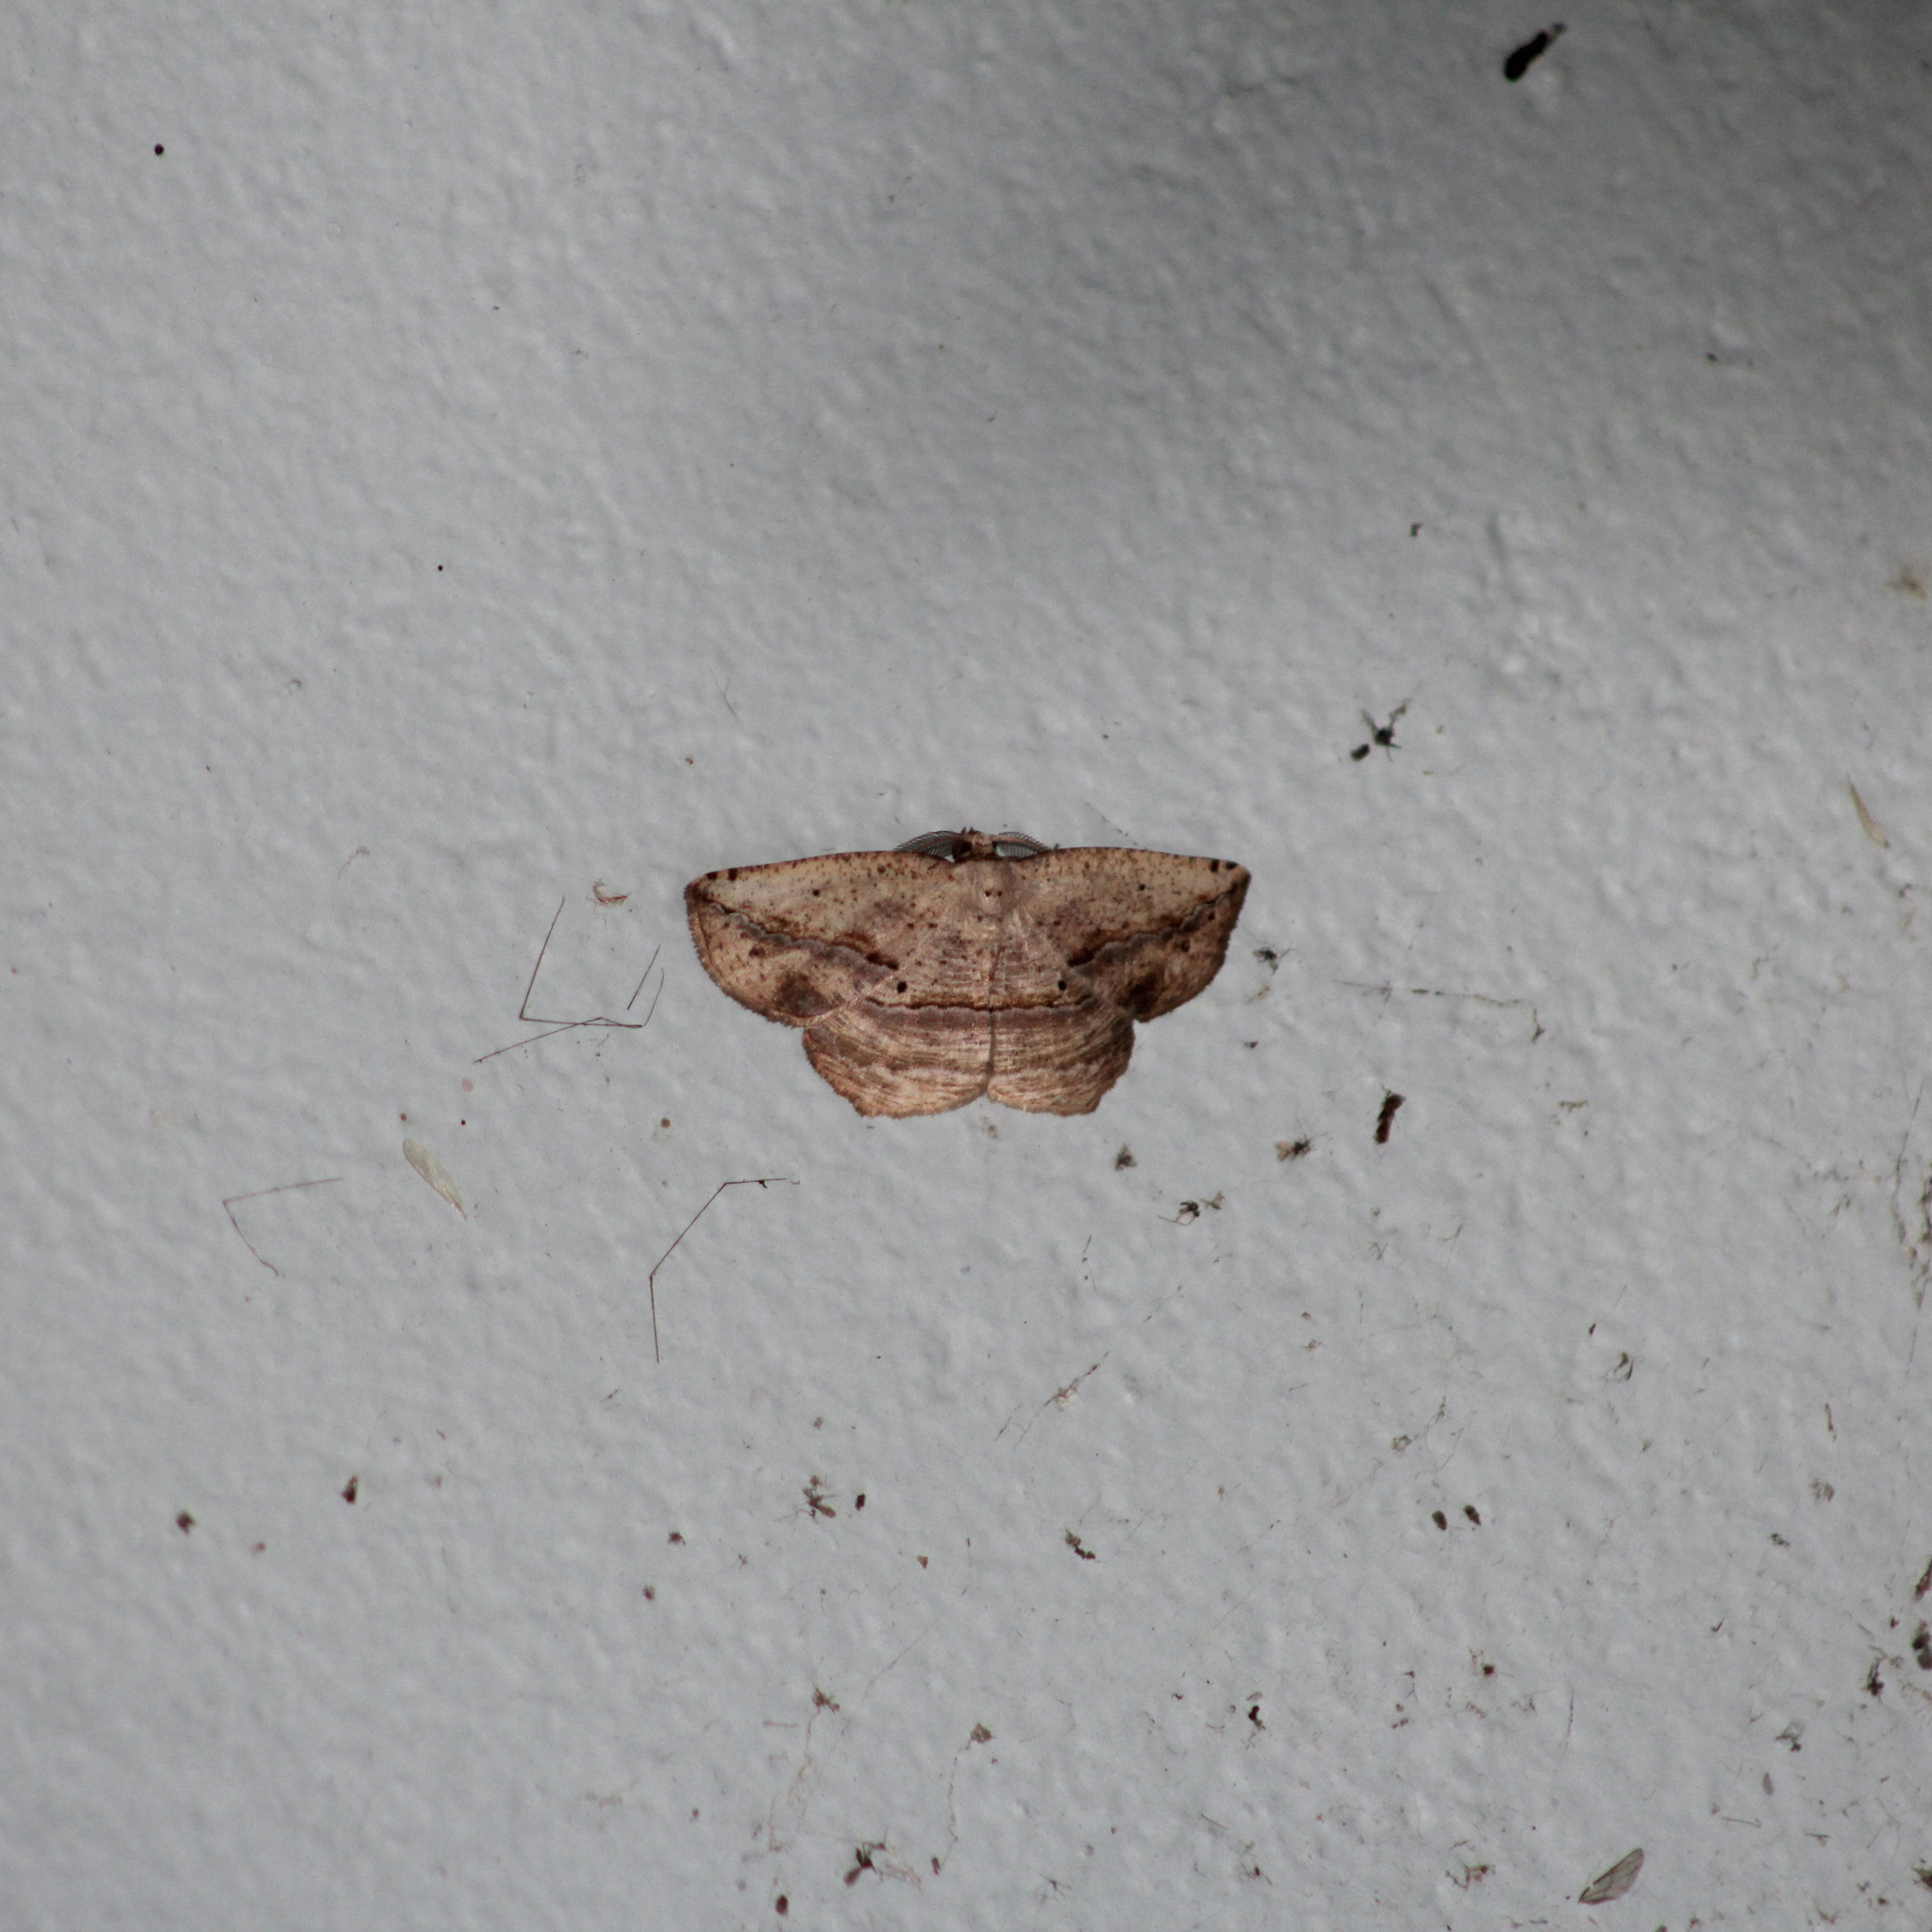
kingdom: Animalia
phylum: Arthropoda
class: Insecta
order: Lepidoptera
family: Geometridae
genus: Eusarca
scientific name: Eusarca concomitaria
